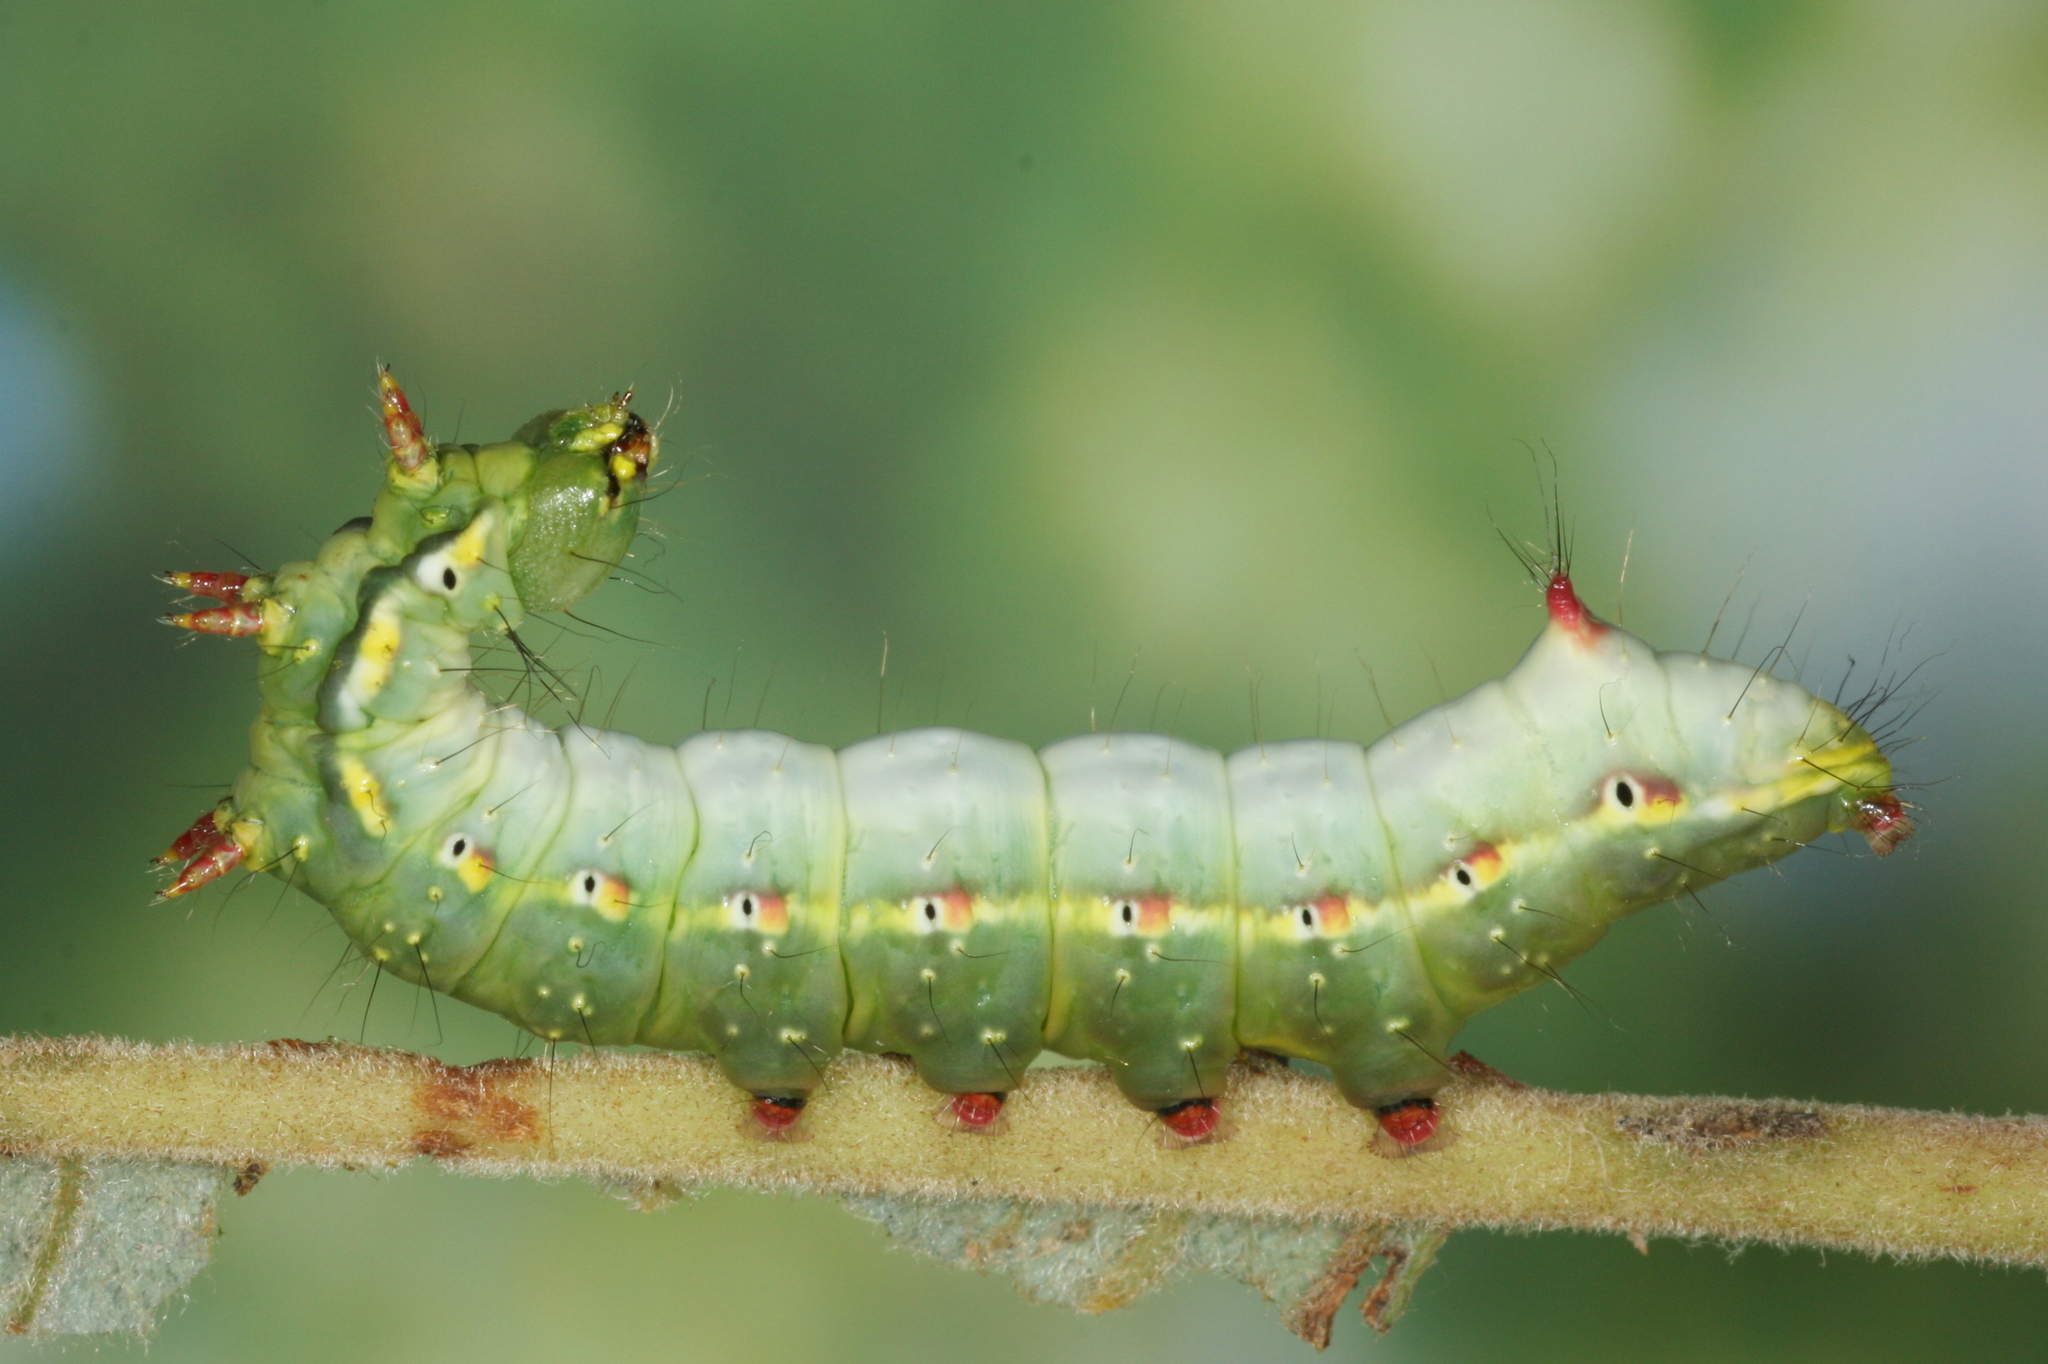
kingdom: Animalia
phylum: Arthropoda
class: Insecta
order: Lepidoptera
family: Notodontidae
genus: Ptilodon
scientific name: Ptilodon capucina
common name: Coxcomb prominent
